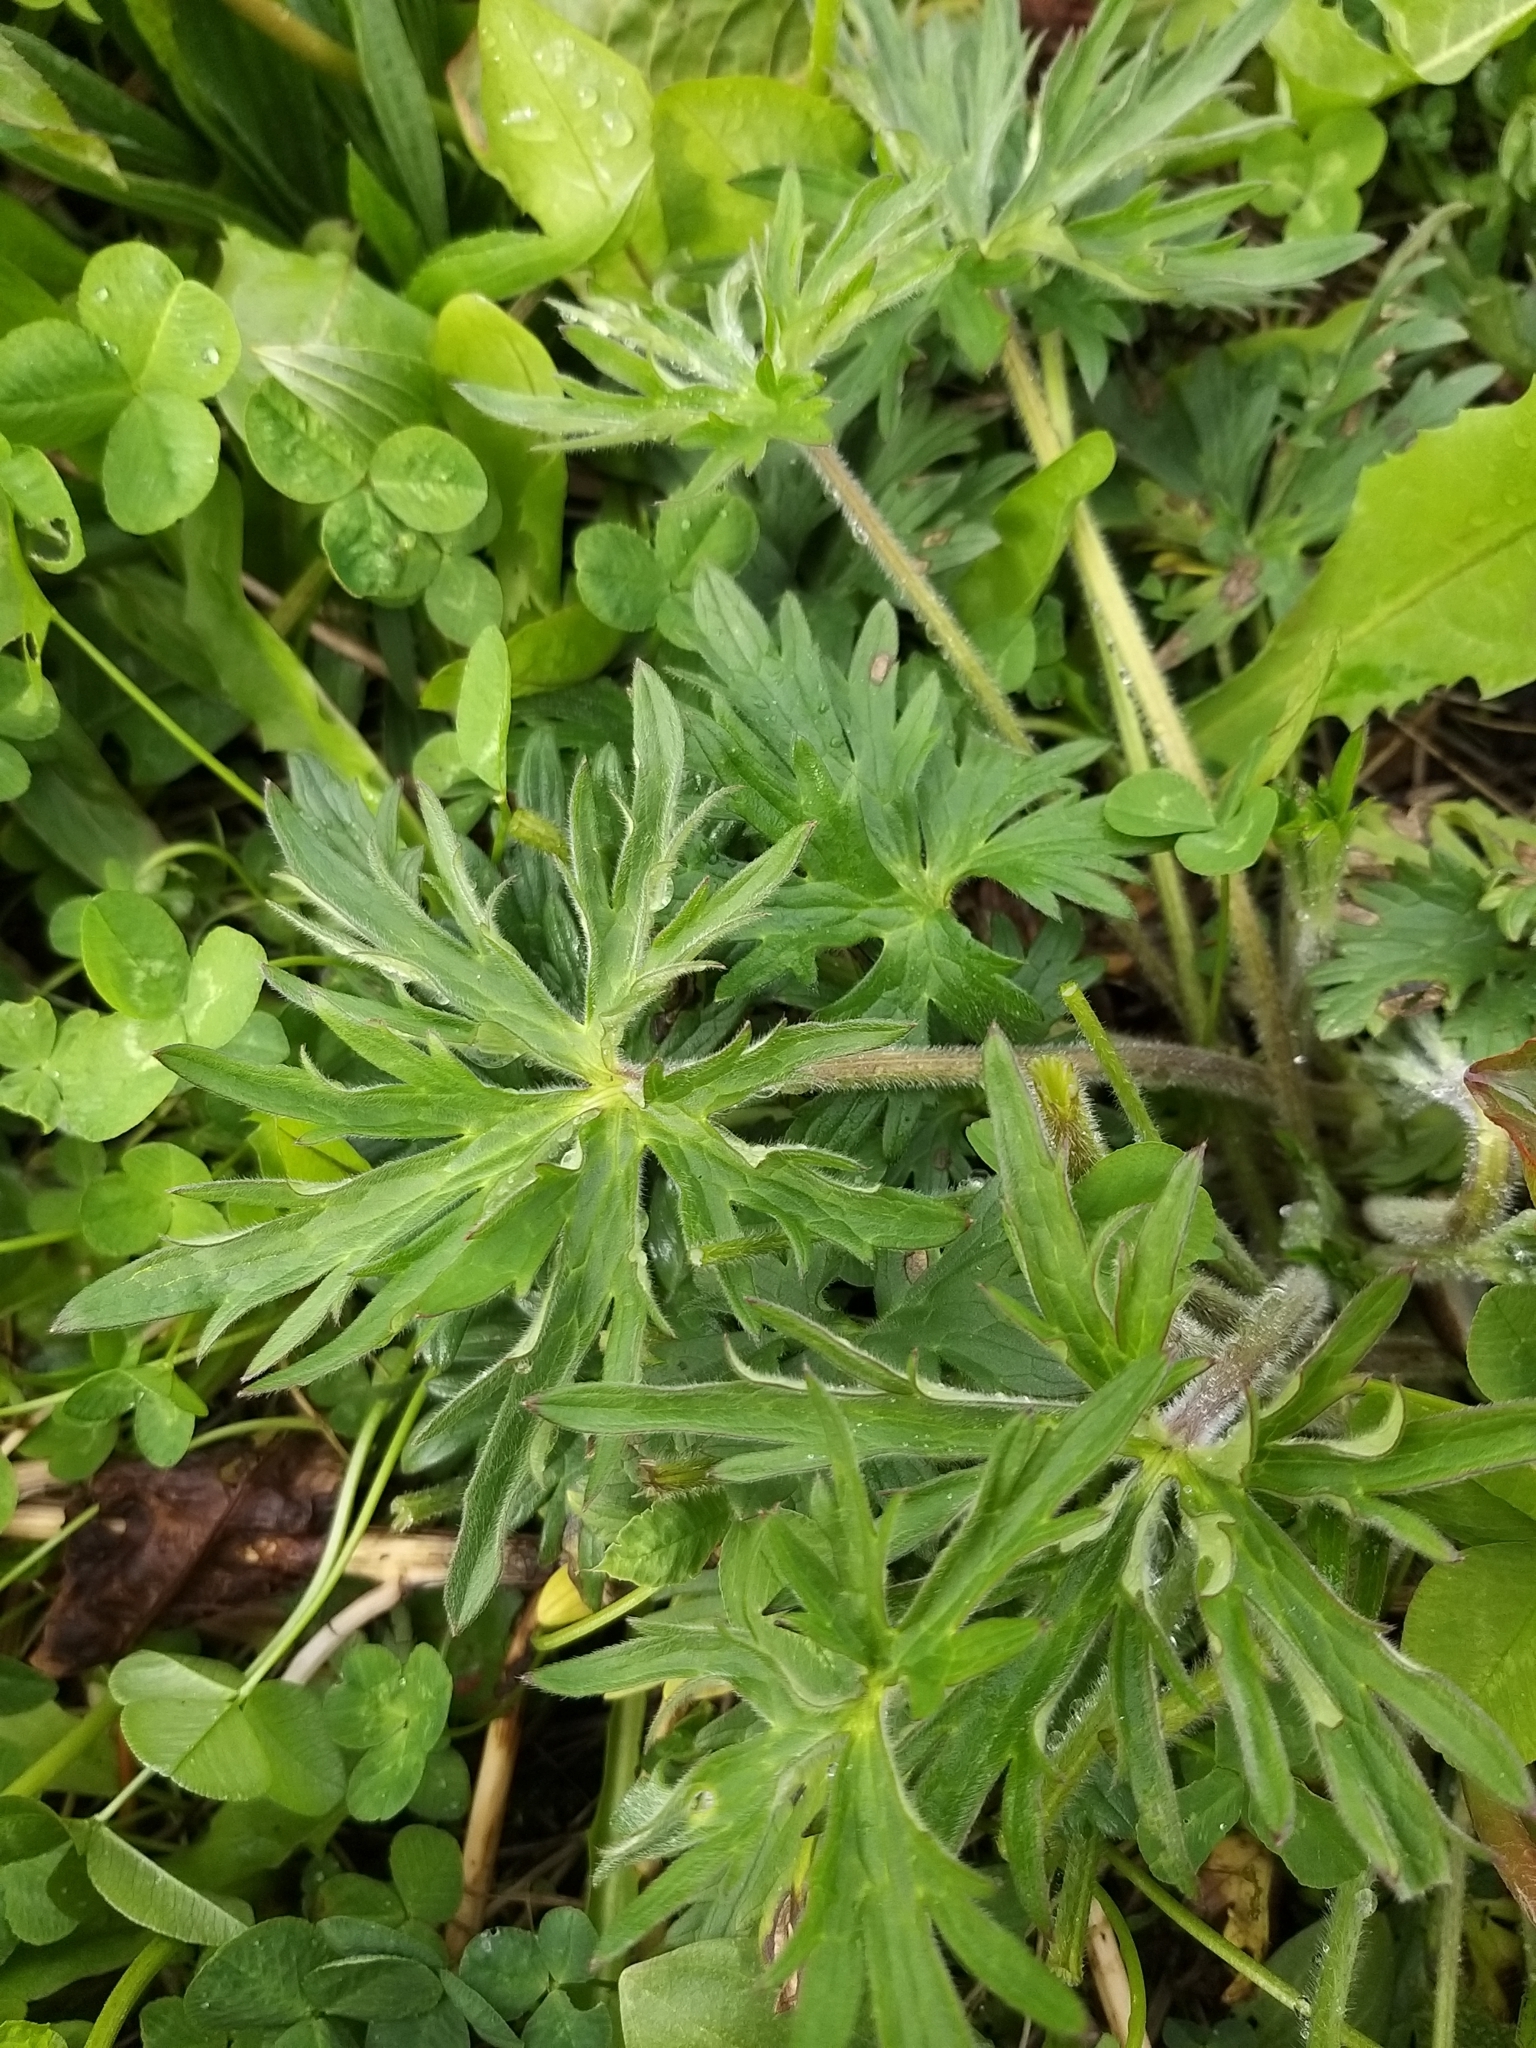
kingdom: Plantae
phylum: Tracheophyta
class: Magnoliopsida
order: Ranunculales
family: Ranunculaceae
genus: Ranunculus
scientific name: Ranunculus acris
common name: Meadow buttercup
